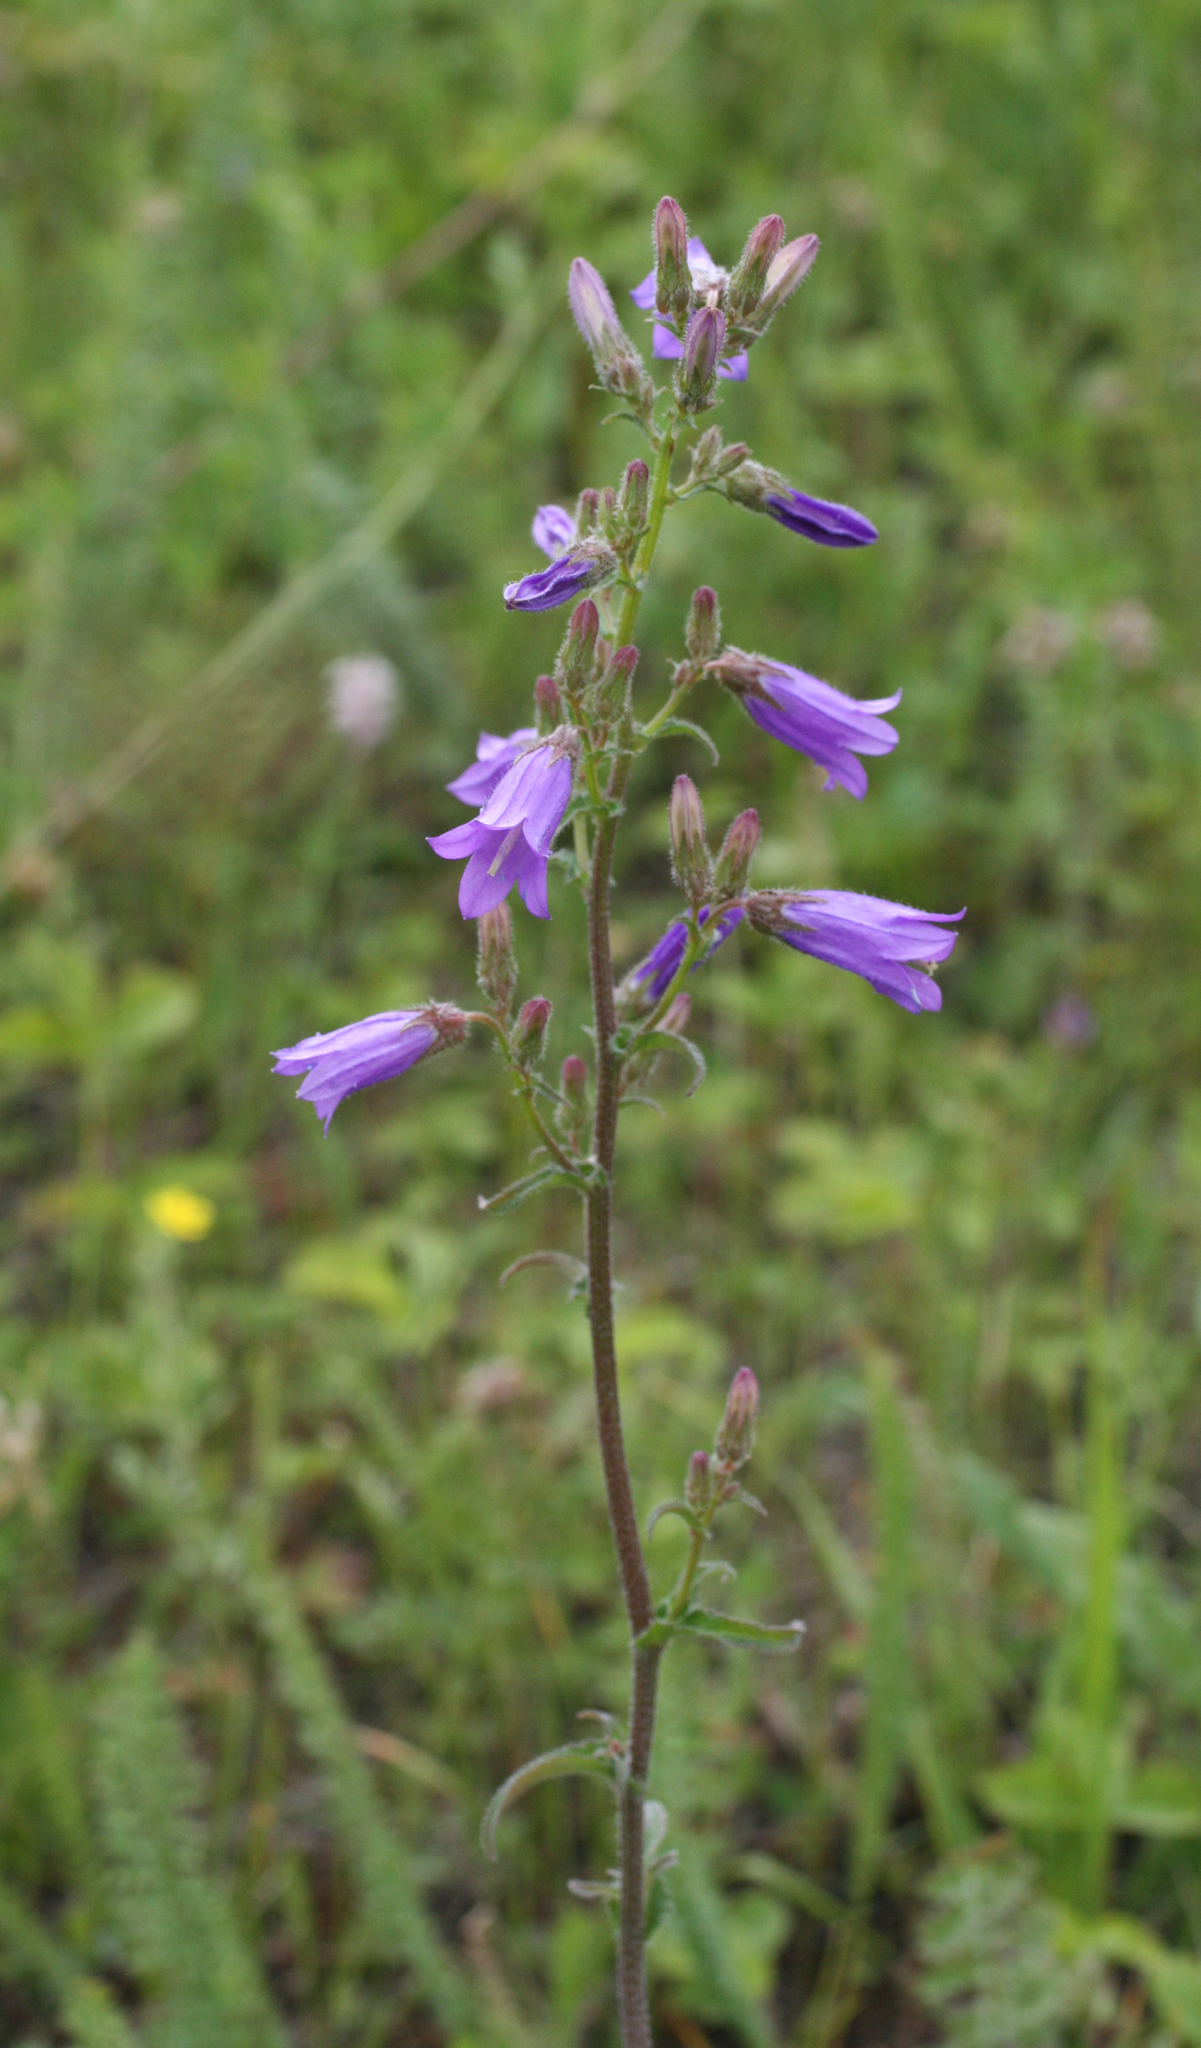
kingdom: Plantae
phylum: Tracheophyta
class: Magnoliopsida
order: Asterales
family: Campanulaceae
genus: Campanula
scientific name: Campanula sibirica
